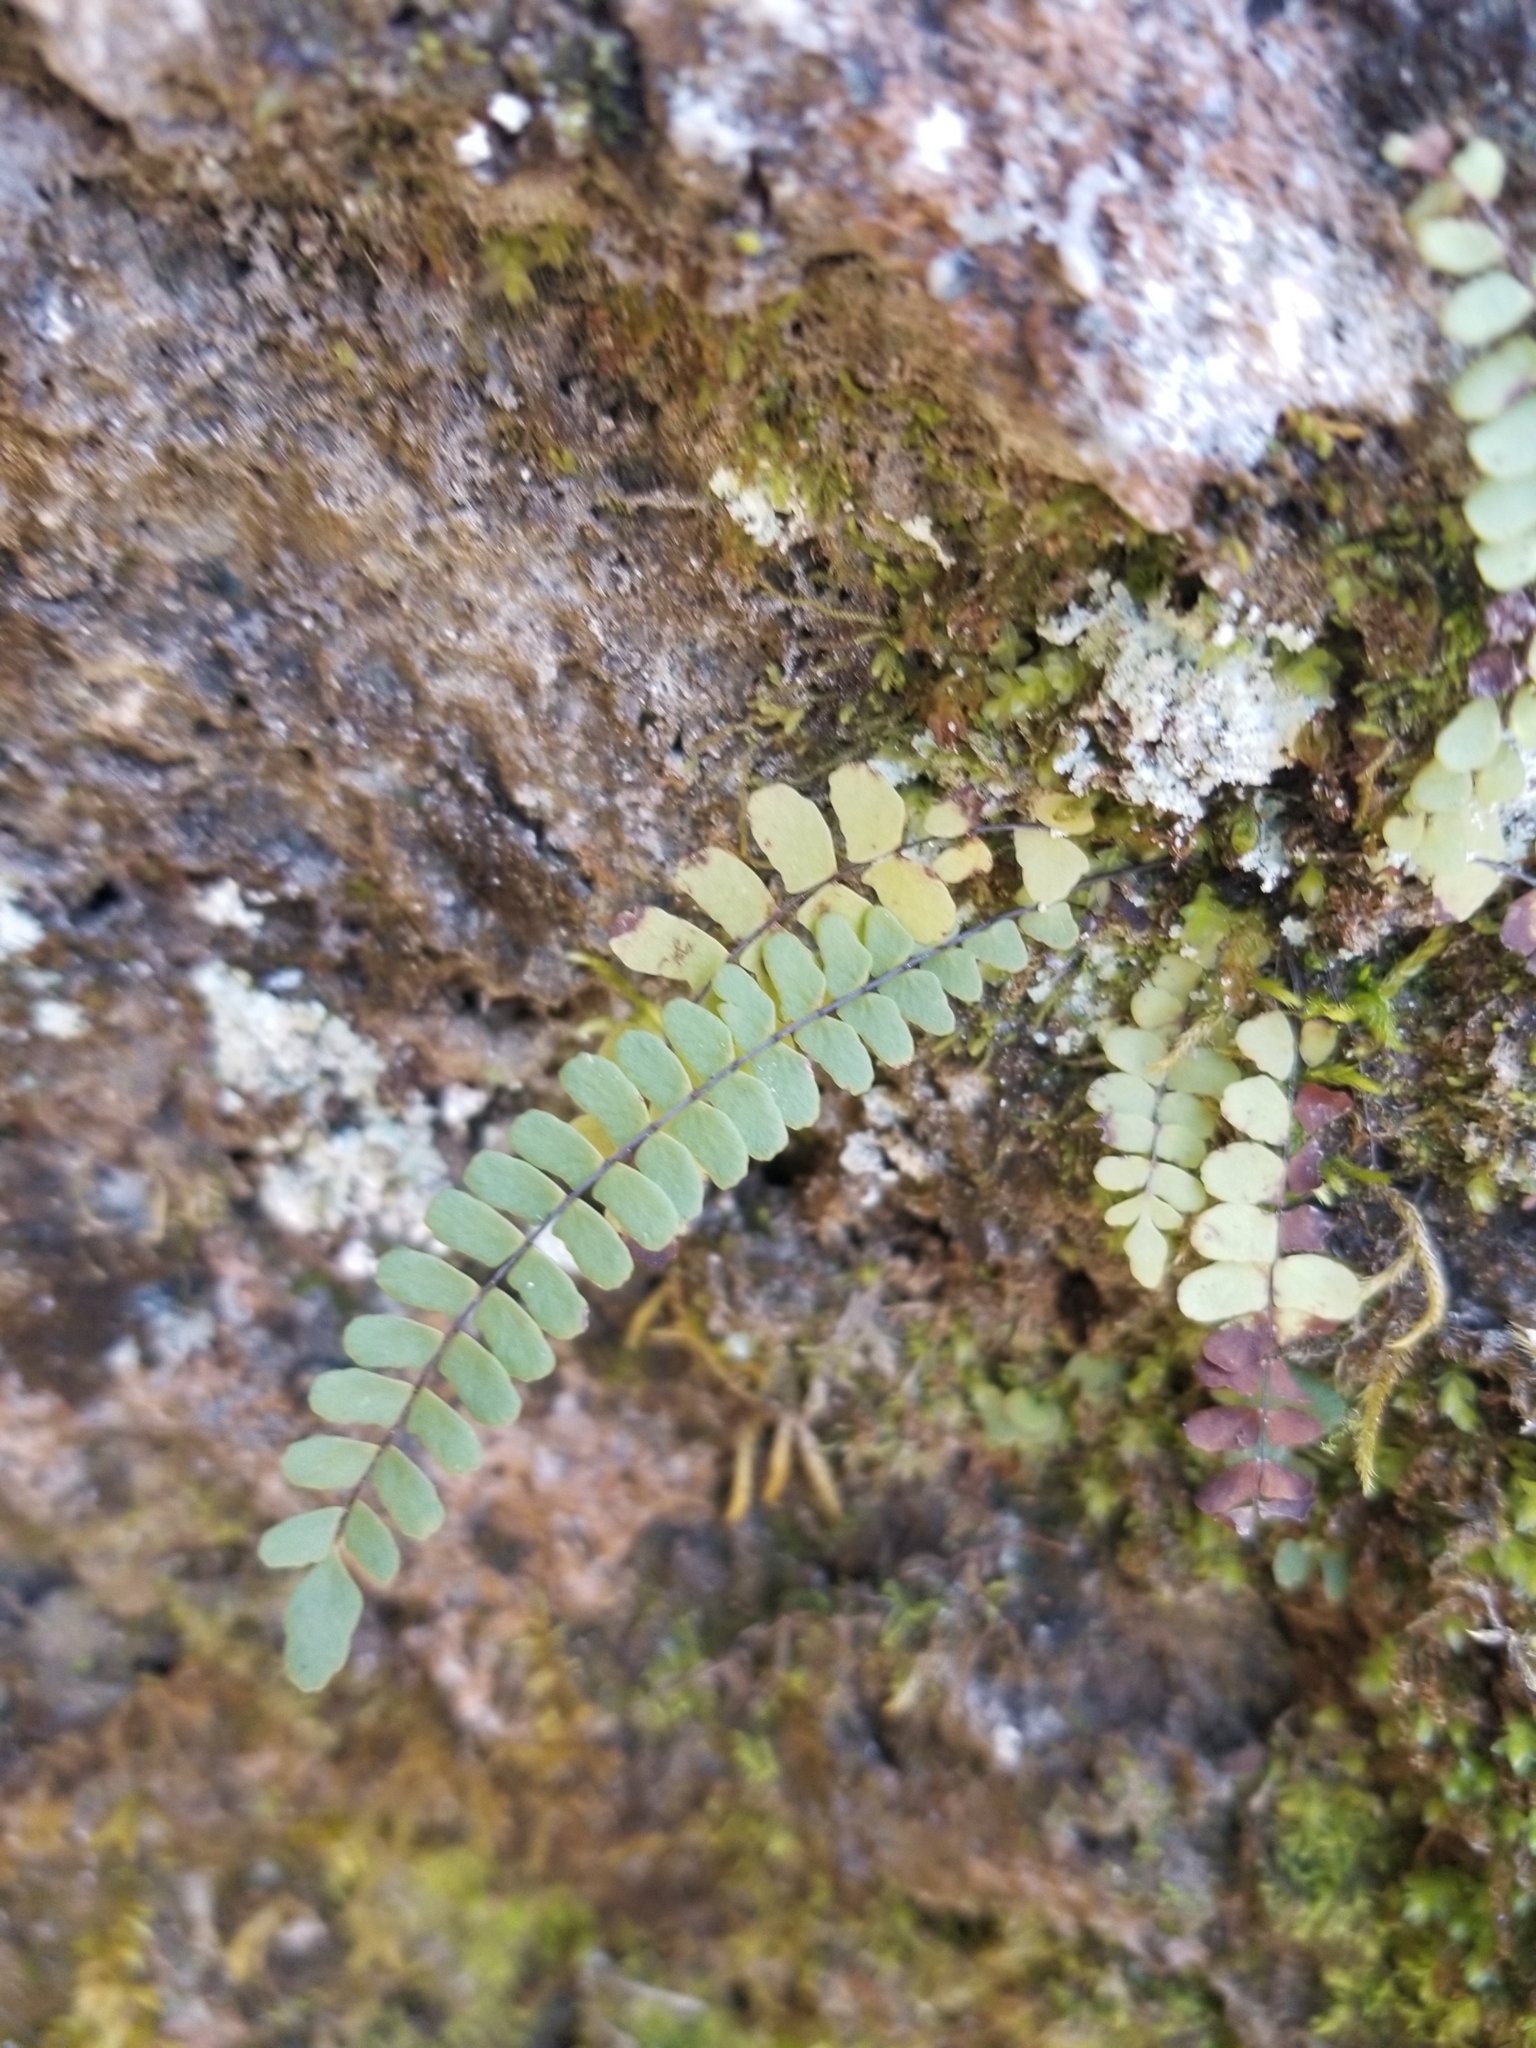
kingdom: Plantae
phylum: Tracheophyta
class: Polypodiopsida
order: Polypodiales
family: Aspleniaceae
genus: Asplenium
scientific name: Asplenium resiliens
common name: Blackstem spleenwort
